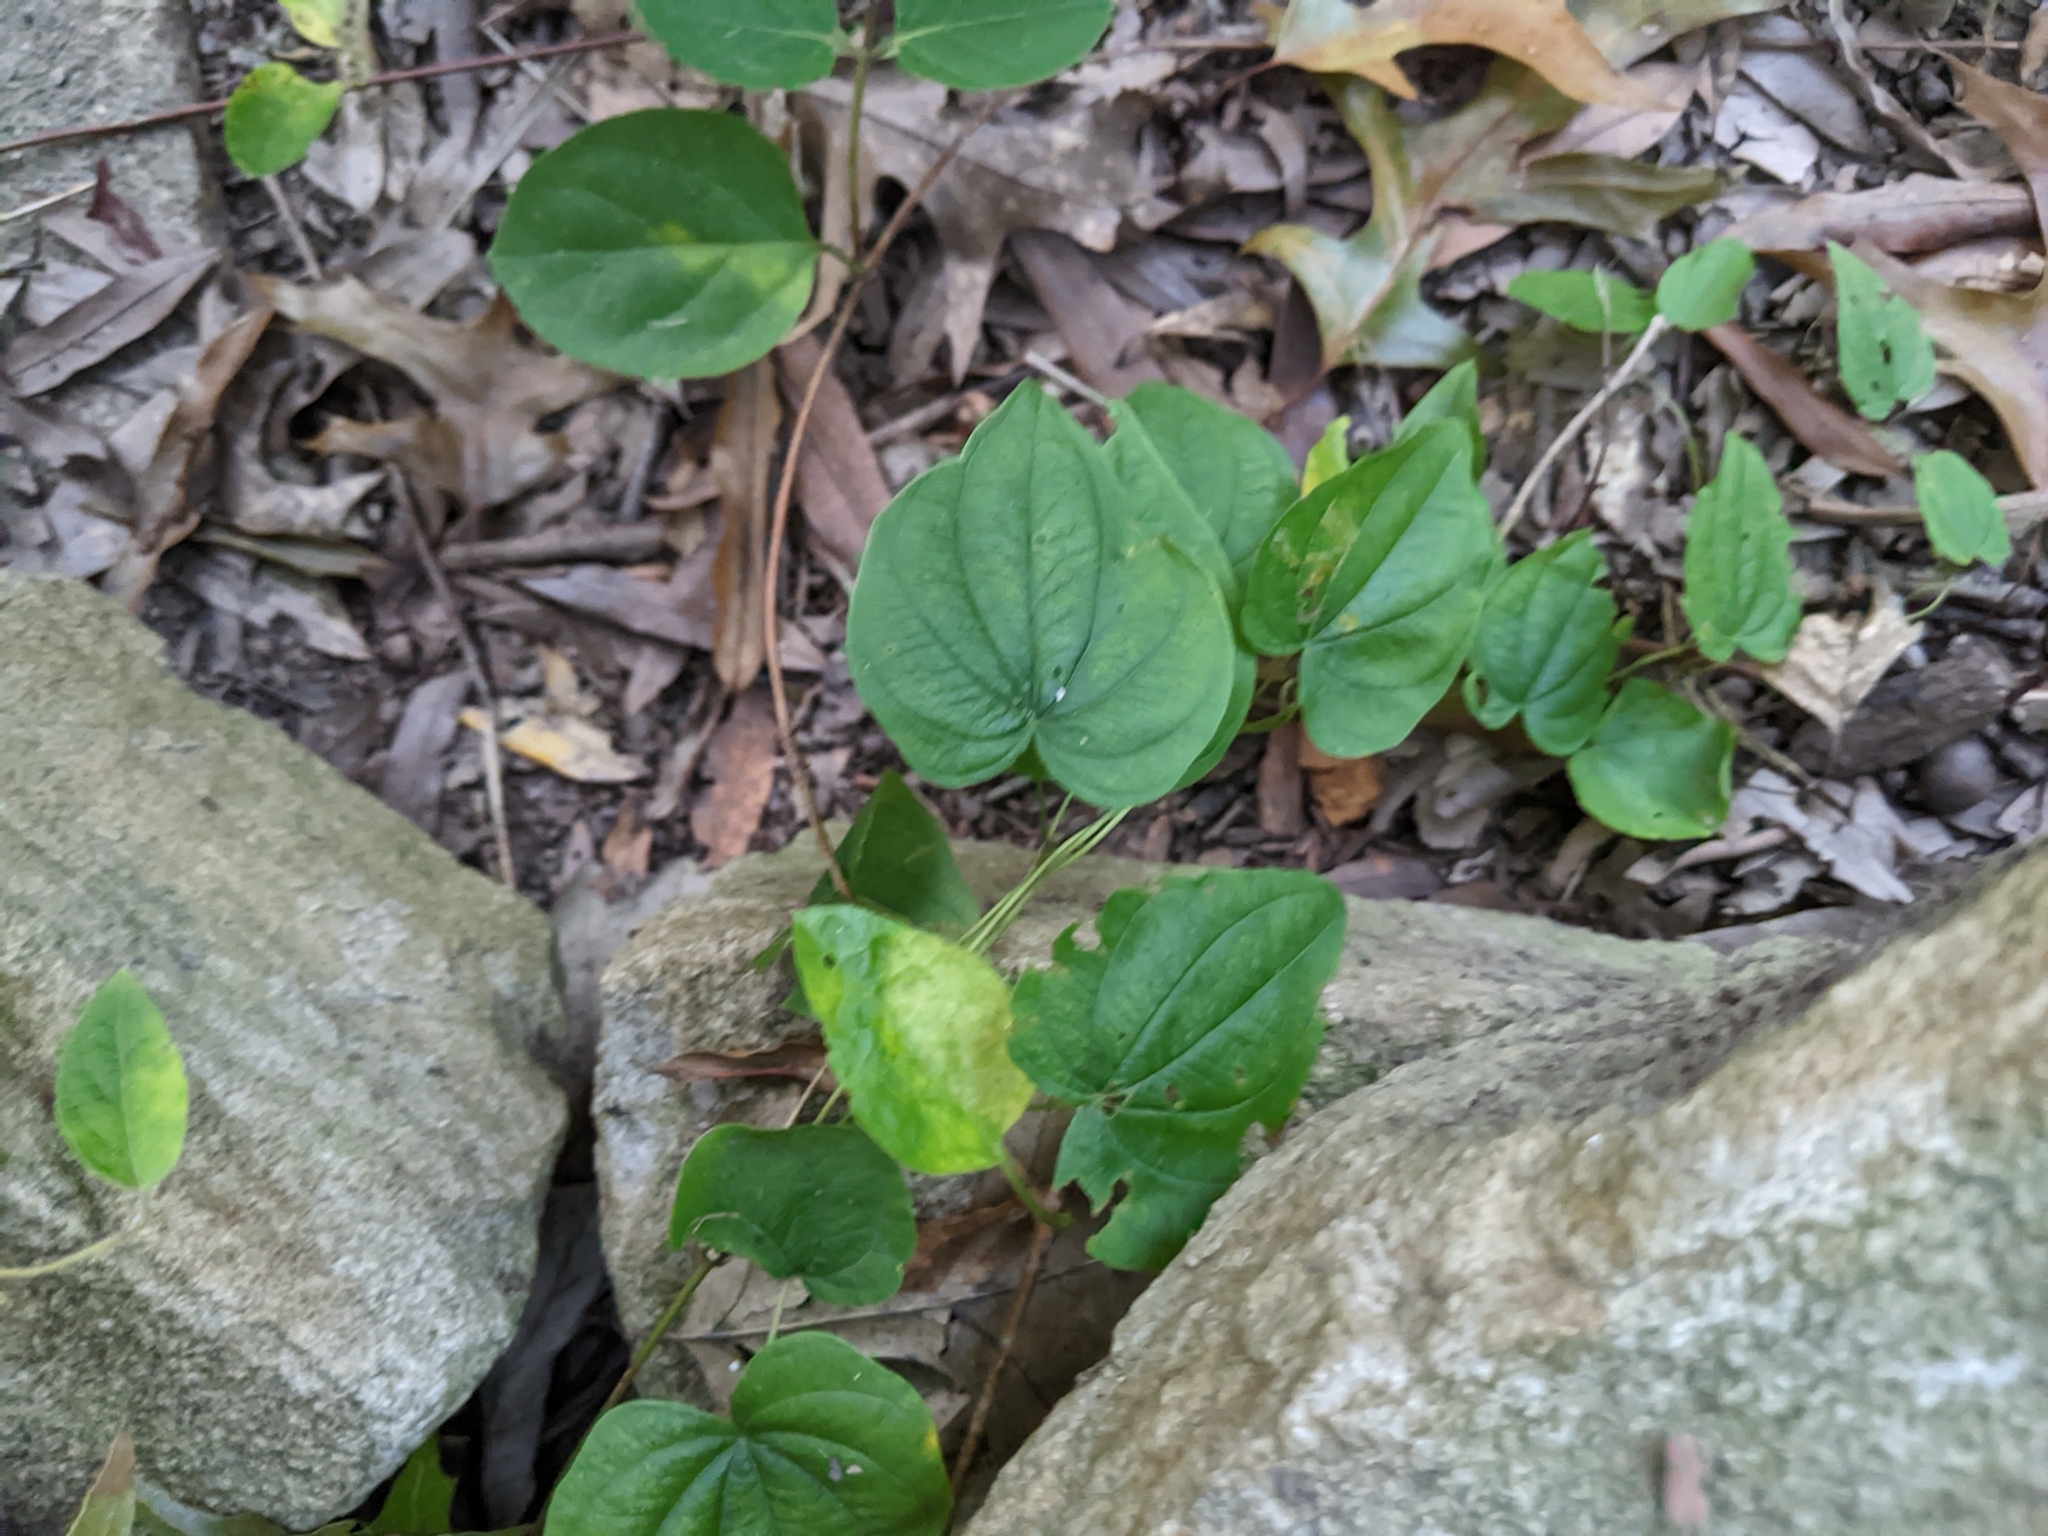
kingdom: Plantae
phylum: Tracheophyta
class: Liliopsida
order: Dioscoreales
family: Dioscoreaceae
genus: Dioscorea
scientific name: Dioscorea villosa
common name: Wild yam
